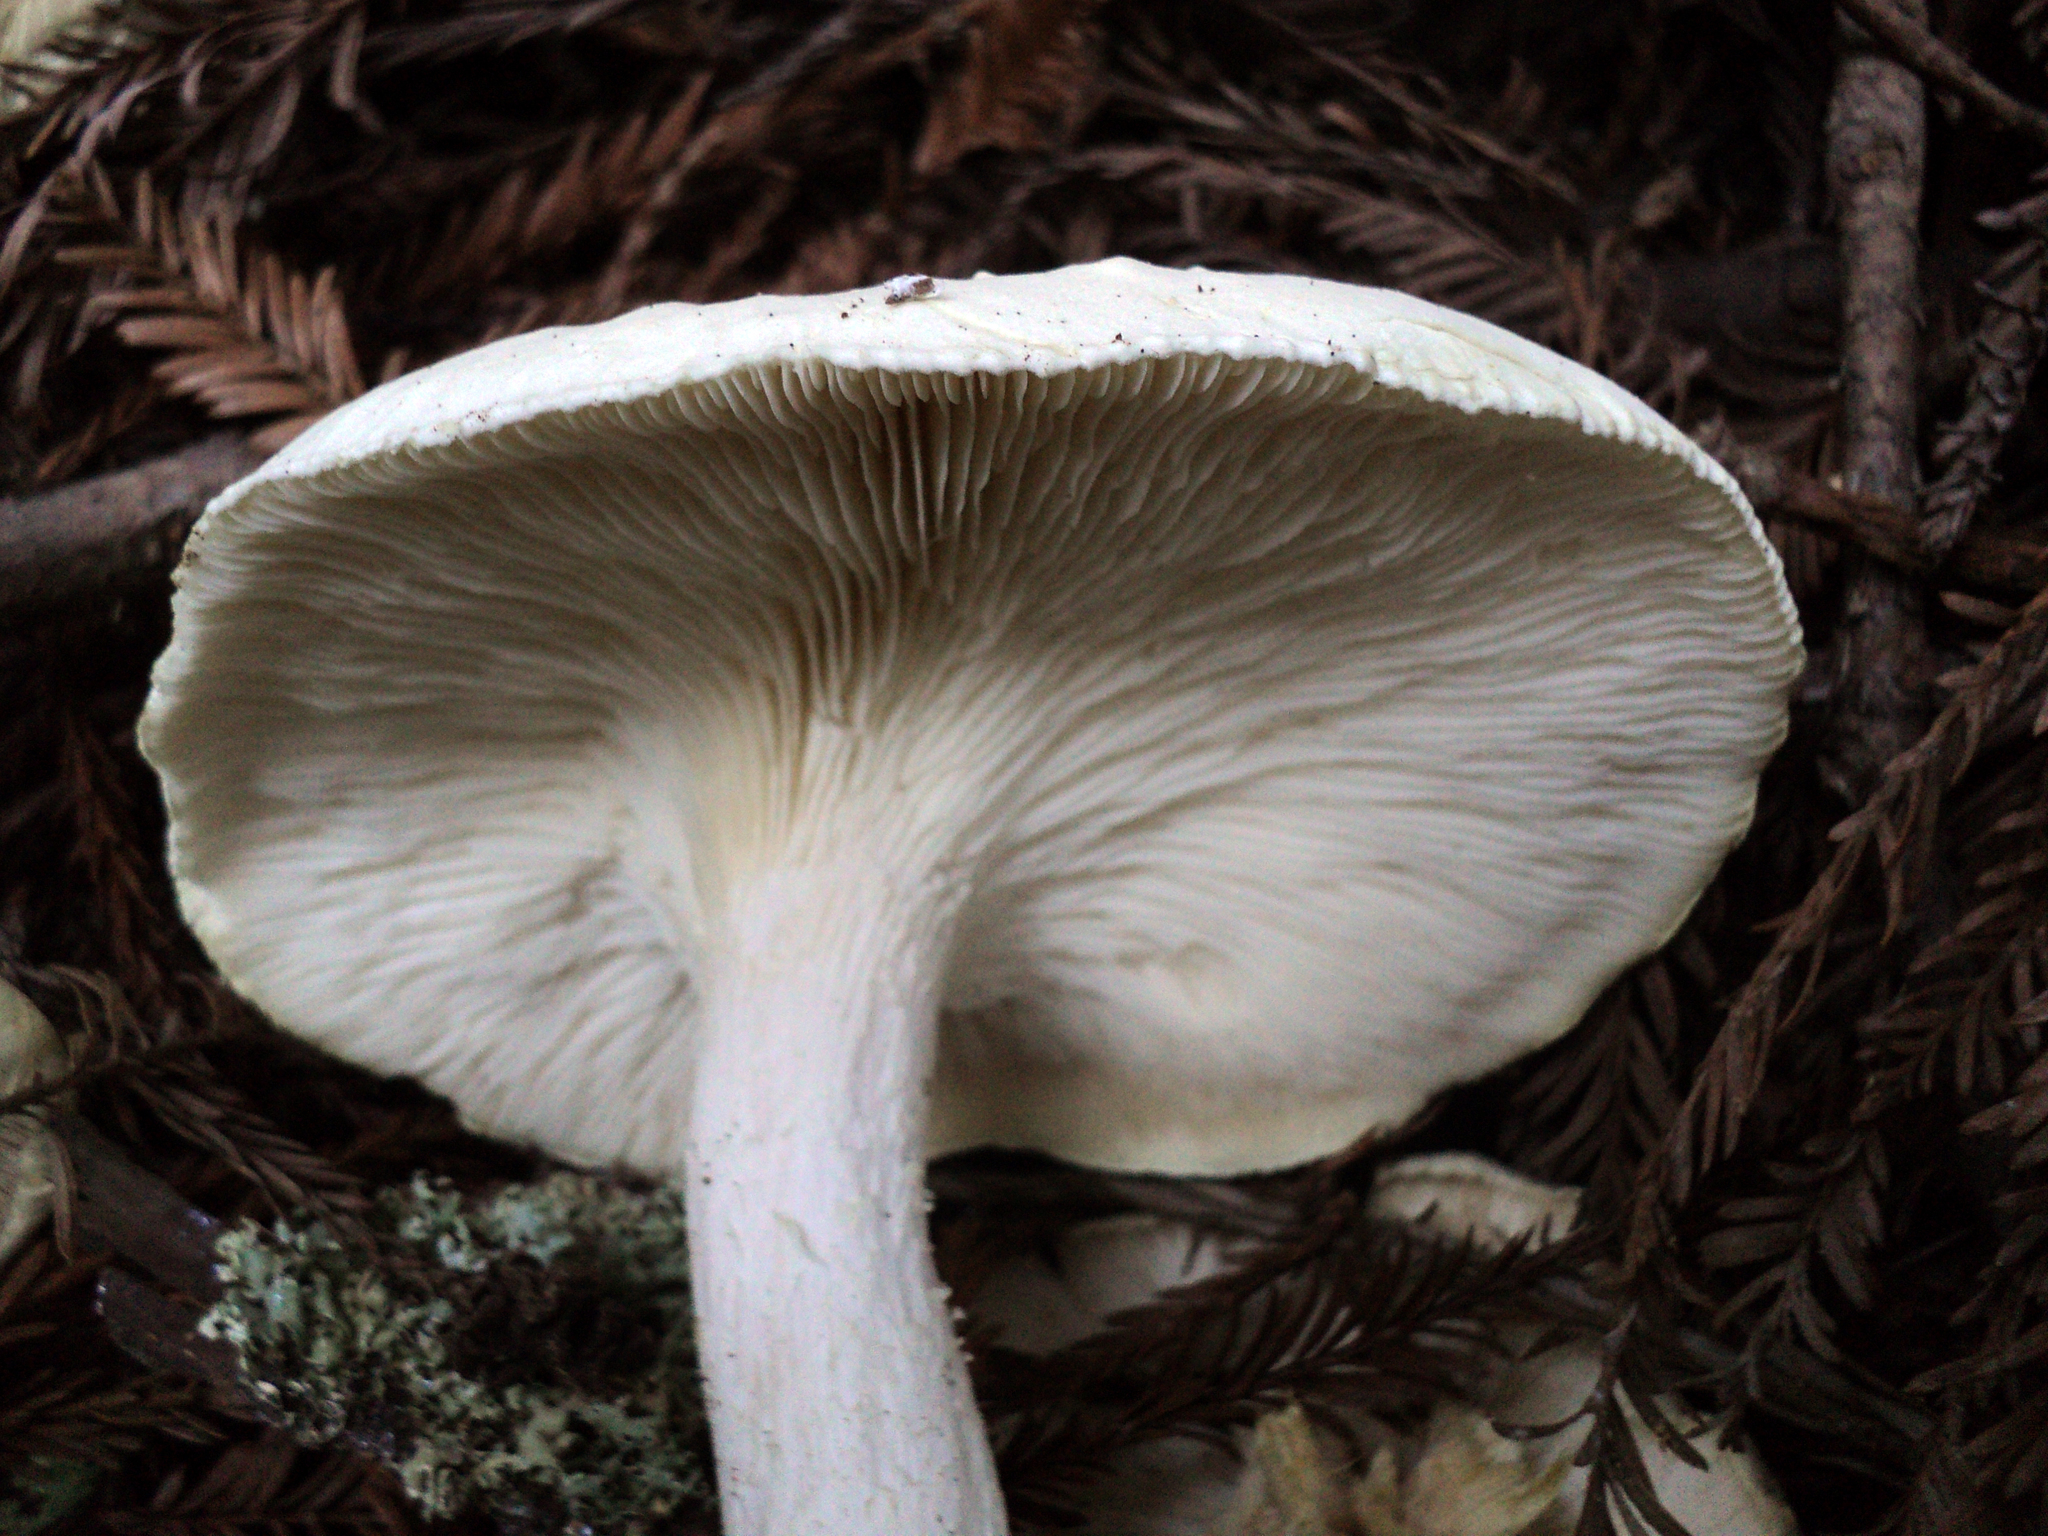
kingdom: Fungi
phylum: Basidiomycota
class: Agaricomycetes
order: Agaricales
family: Tricholomataceae
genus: Leucopaxillus
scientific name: Leucopaxillus albissimus
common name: Large white leucopax
